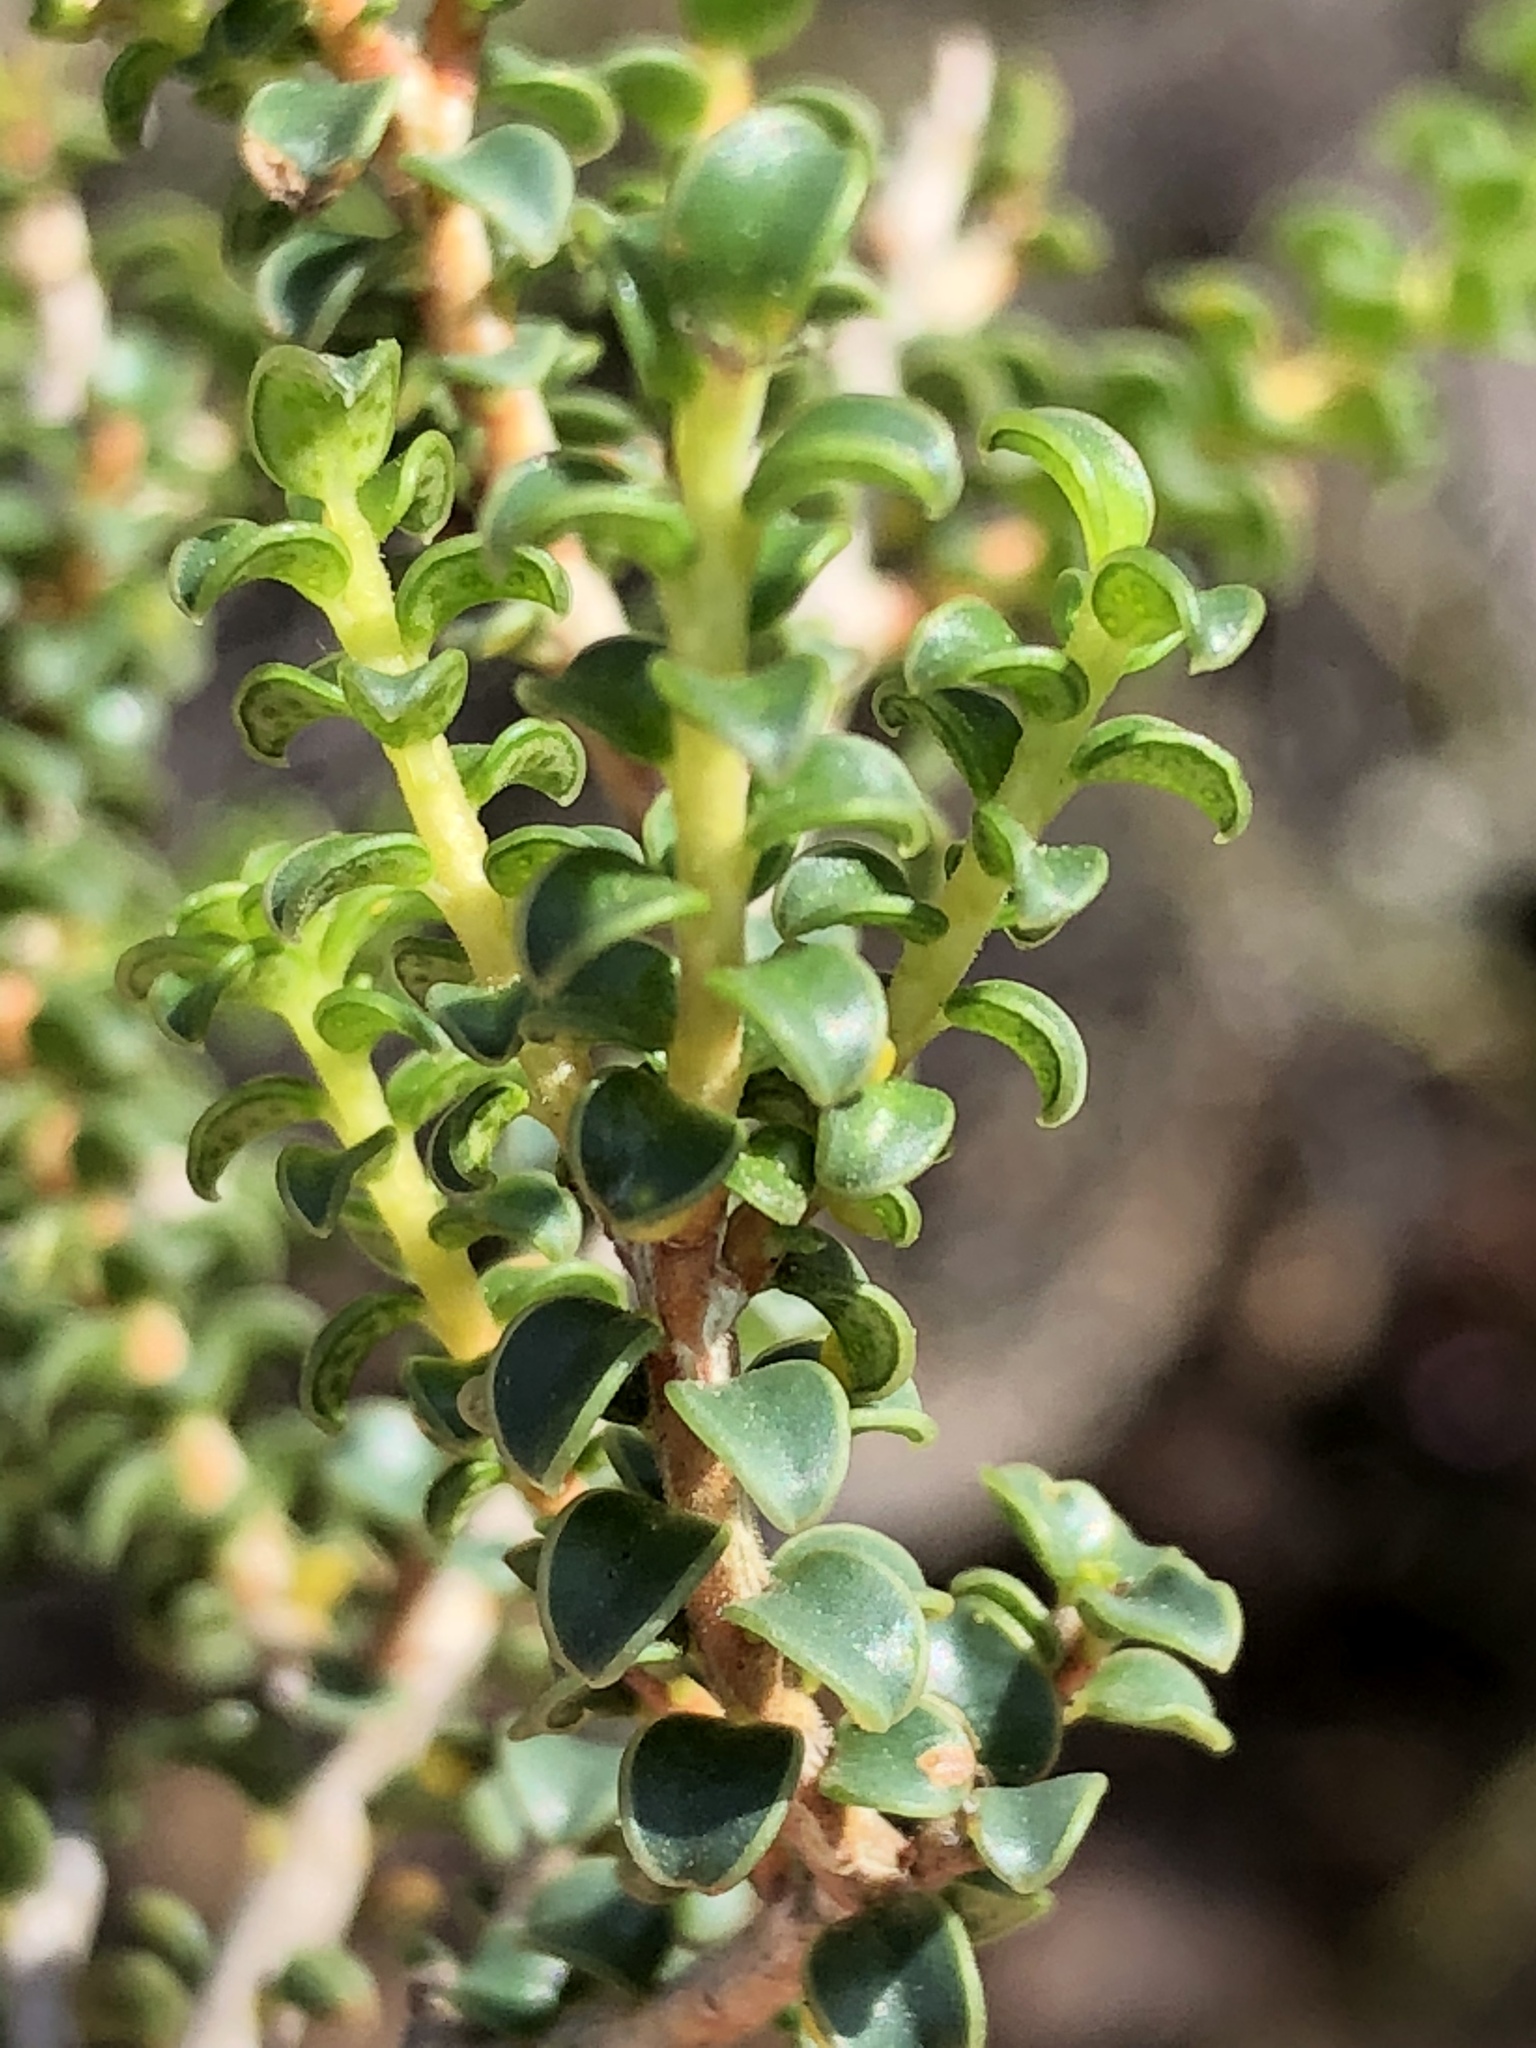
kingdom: Plantae
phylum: Tracheophyta
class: Magnoliopsida
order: Sapindales
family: Rutaceae
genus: Agathosma
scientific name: Agathosma recurvifolia
